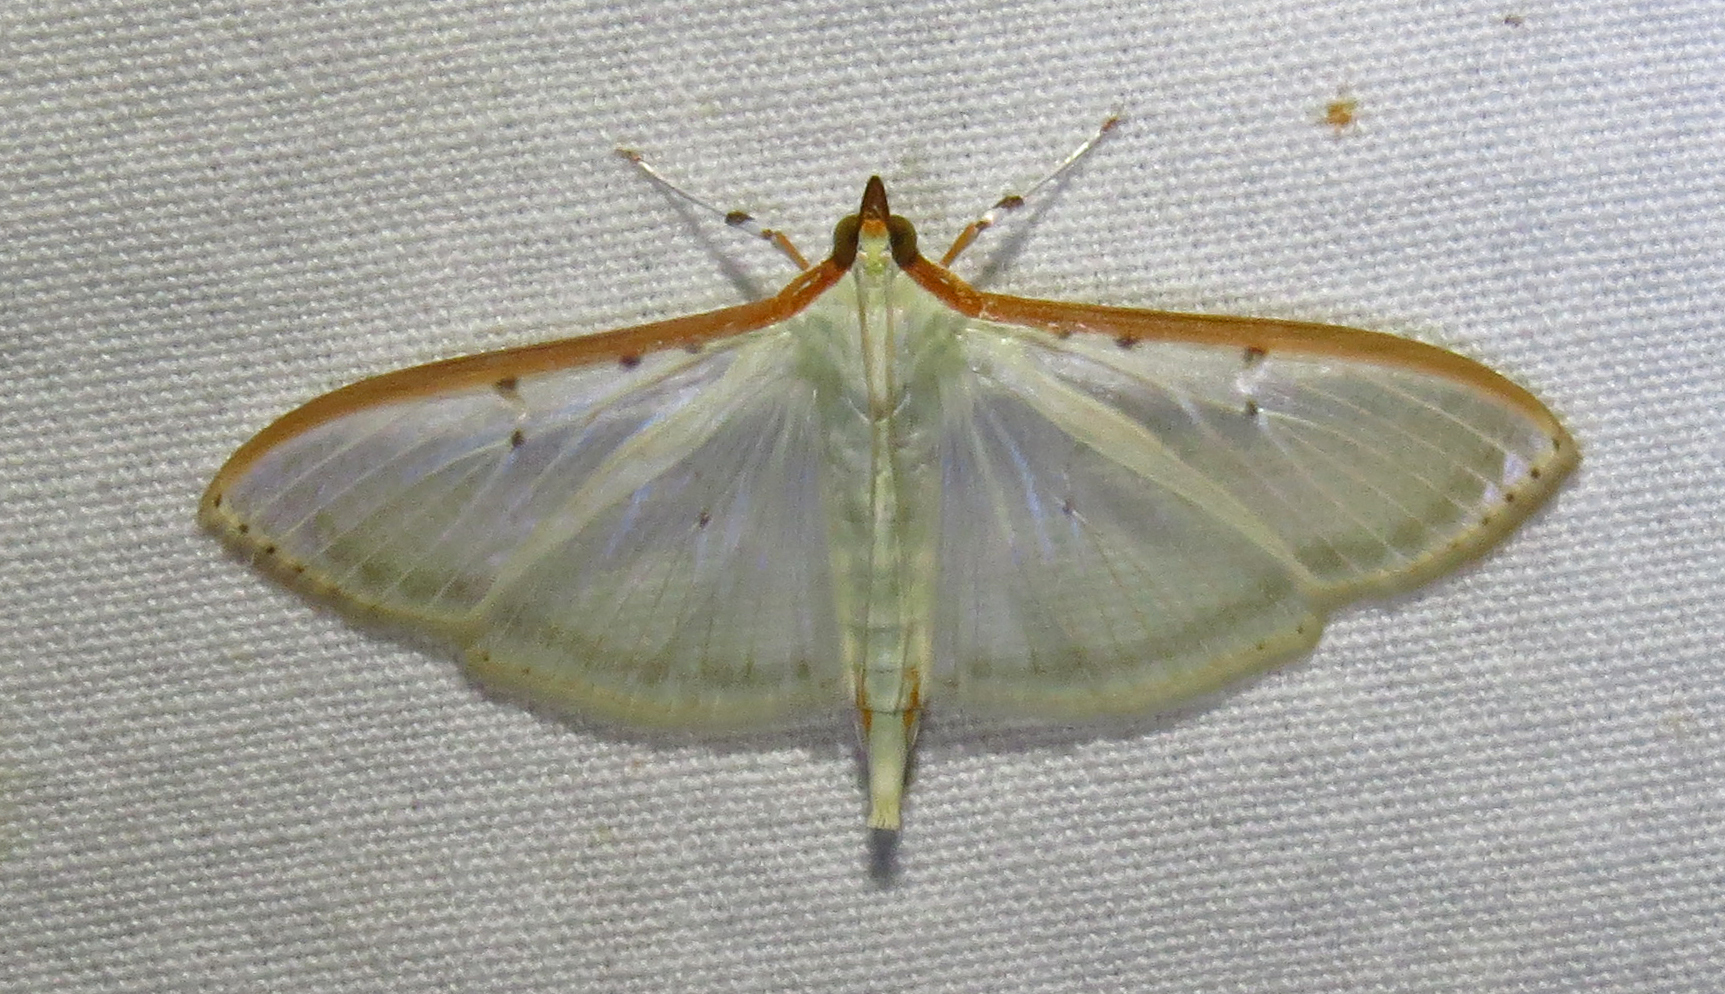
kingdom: Animalia
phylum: Arthropoda
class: Insecta
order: Lepidoptera
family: Crambidae
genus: Palpita
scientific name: Palpita quadristigmalis
